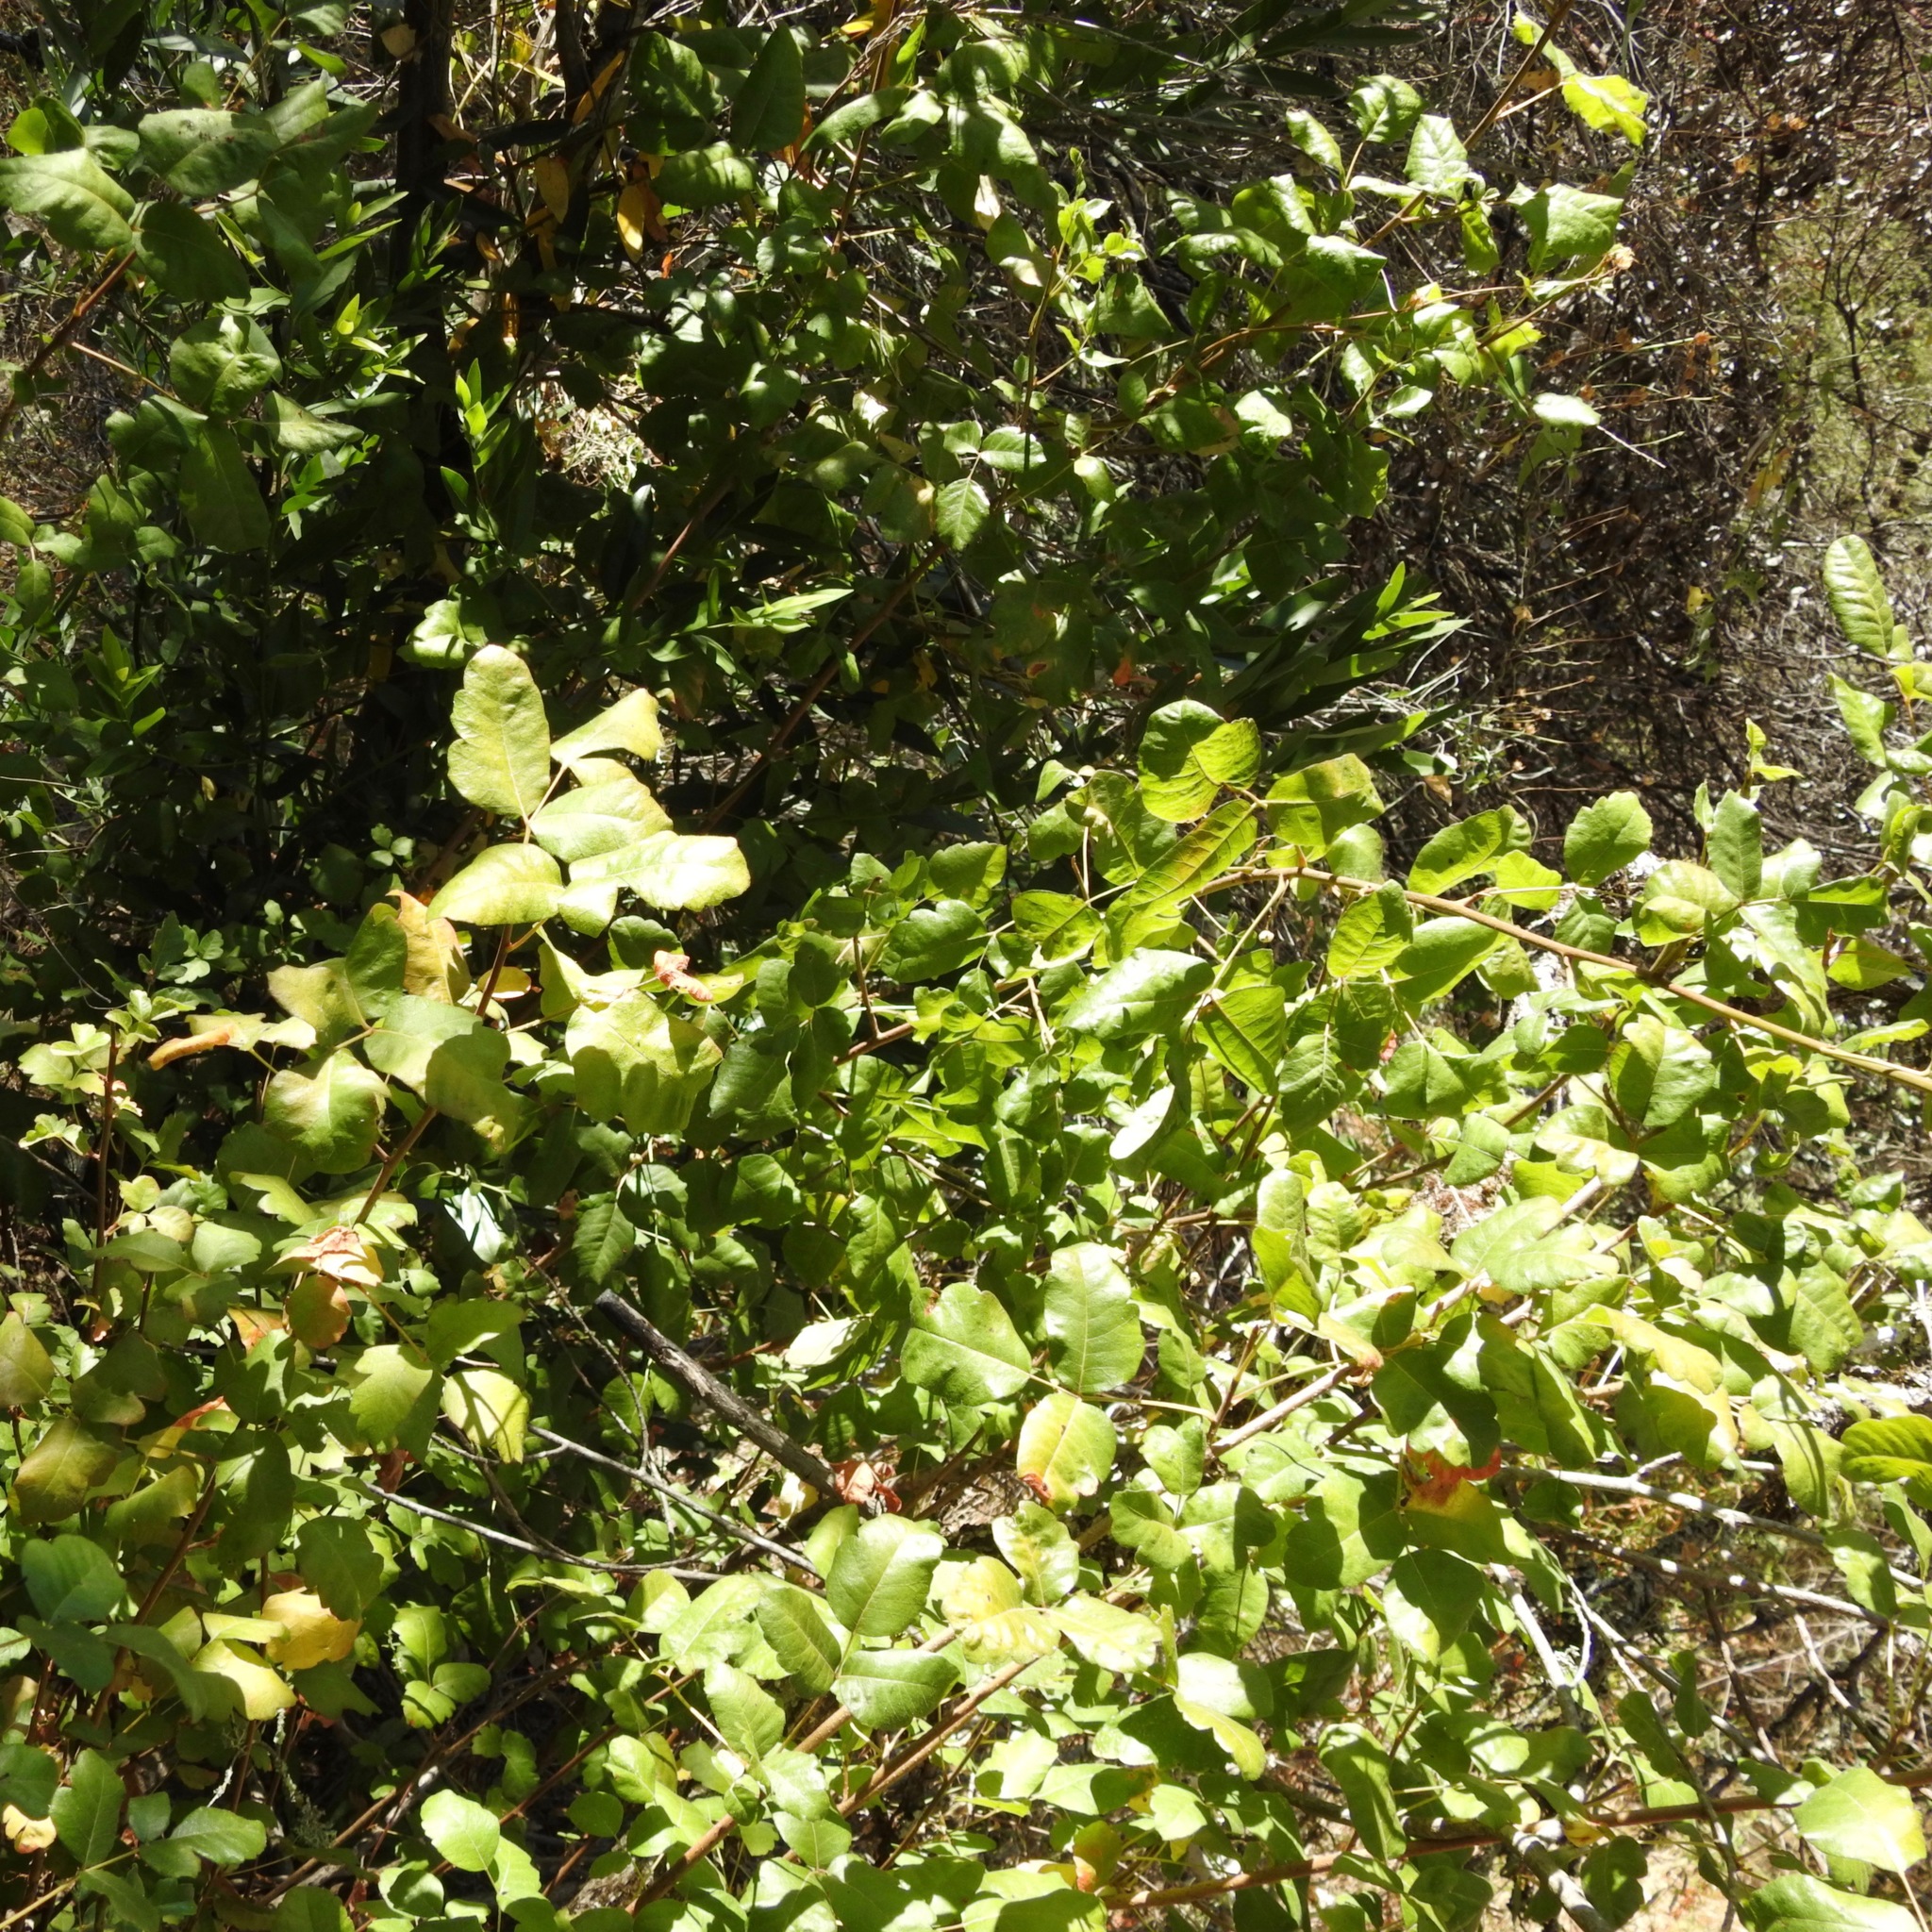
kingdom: Plantae
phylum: Tracheophyta
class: Magnoliopsida
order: Sapindales
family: Anacardiaceae
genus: Toxicodendron
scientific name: Toxicodendron diversilobum
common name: Pacific poison-oak
